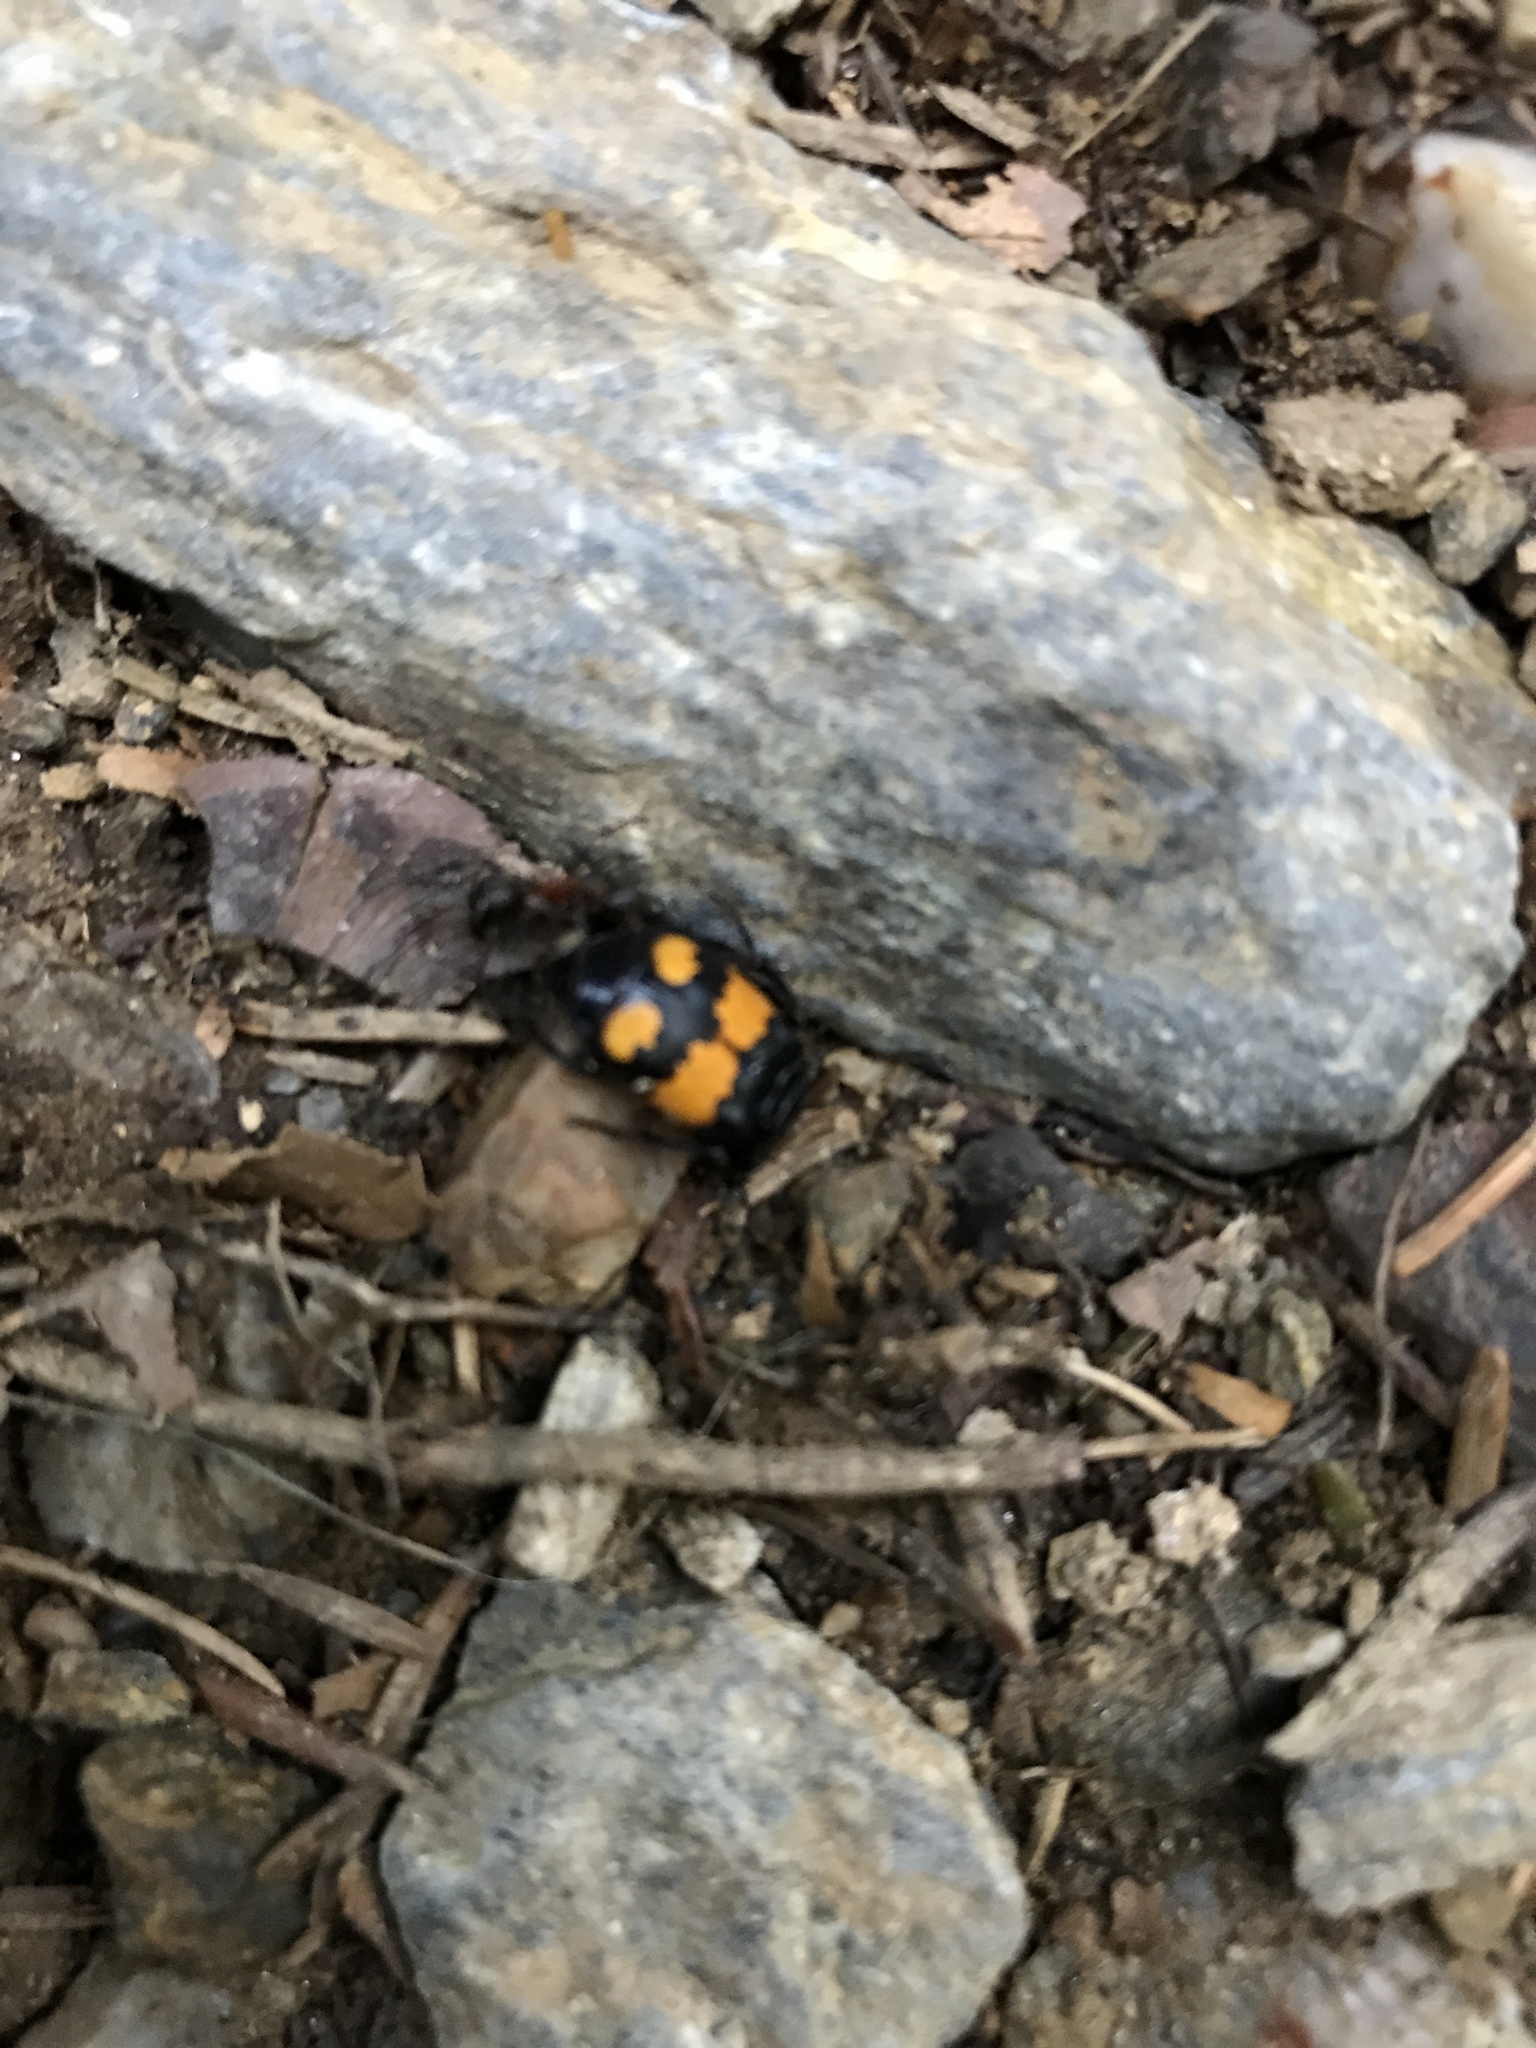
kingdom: Animalia
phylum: Arthropoda
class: Insecta
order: Coleoptera
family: Staphylinidae
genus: Nicrophorus
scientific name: Nicrophorus vespilloides
